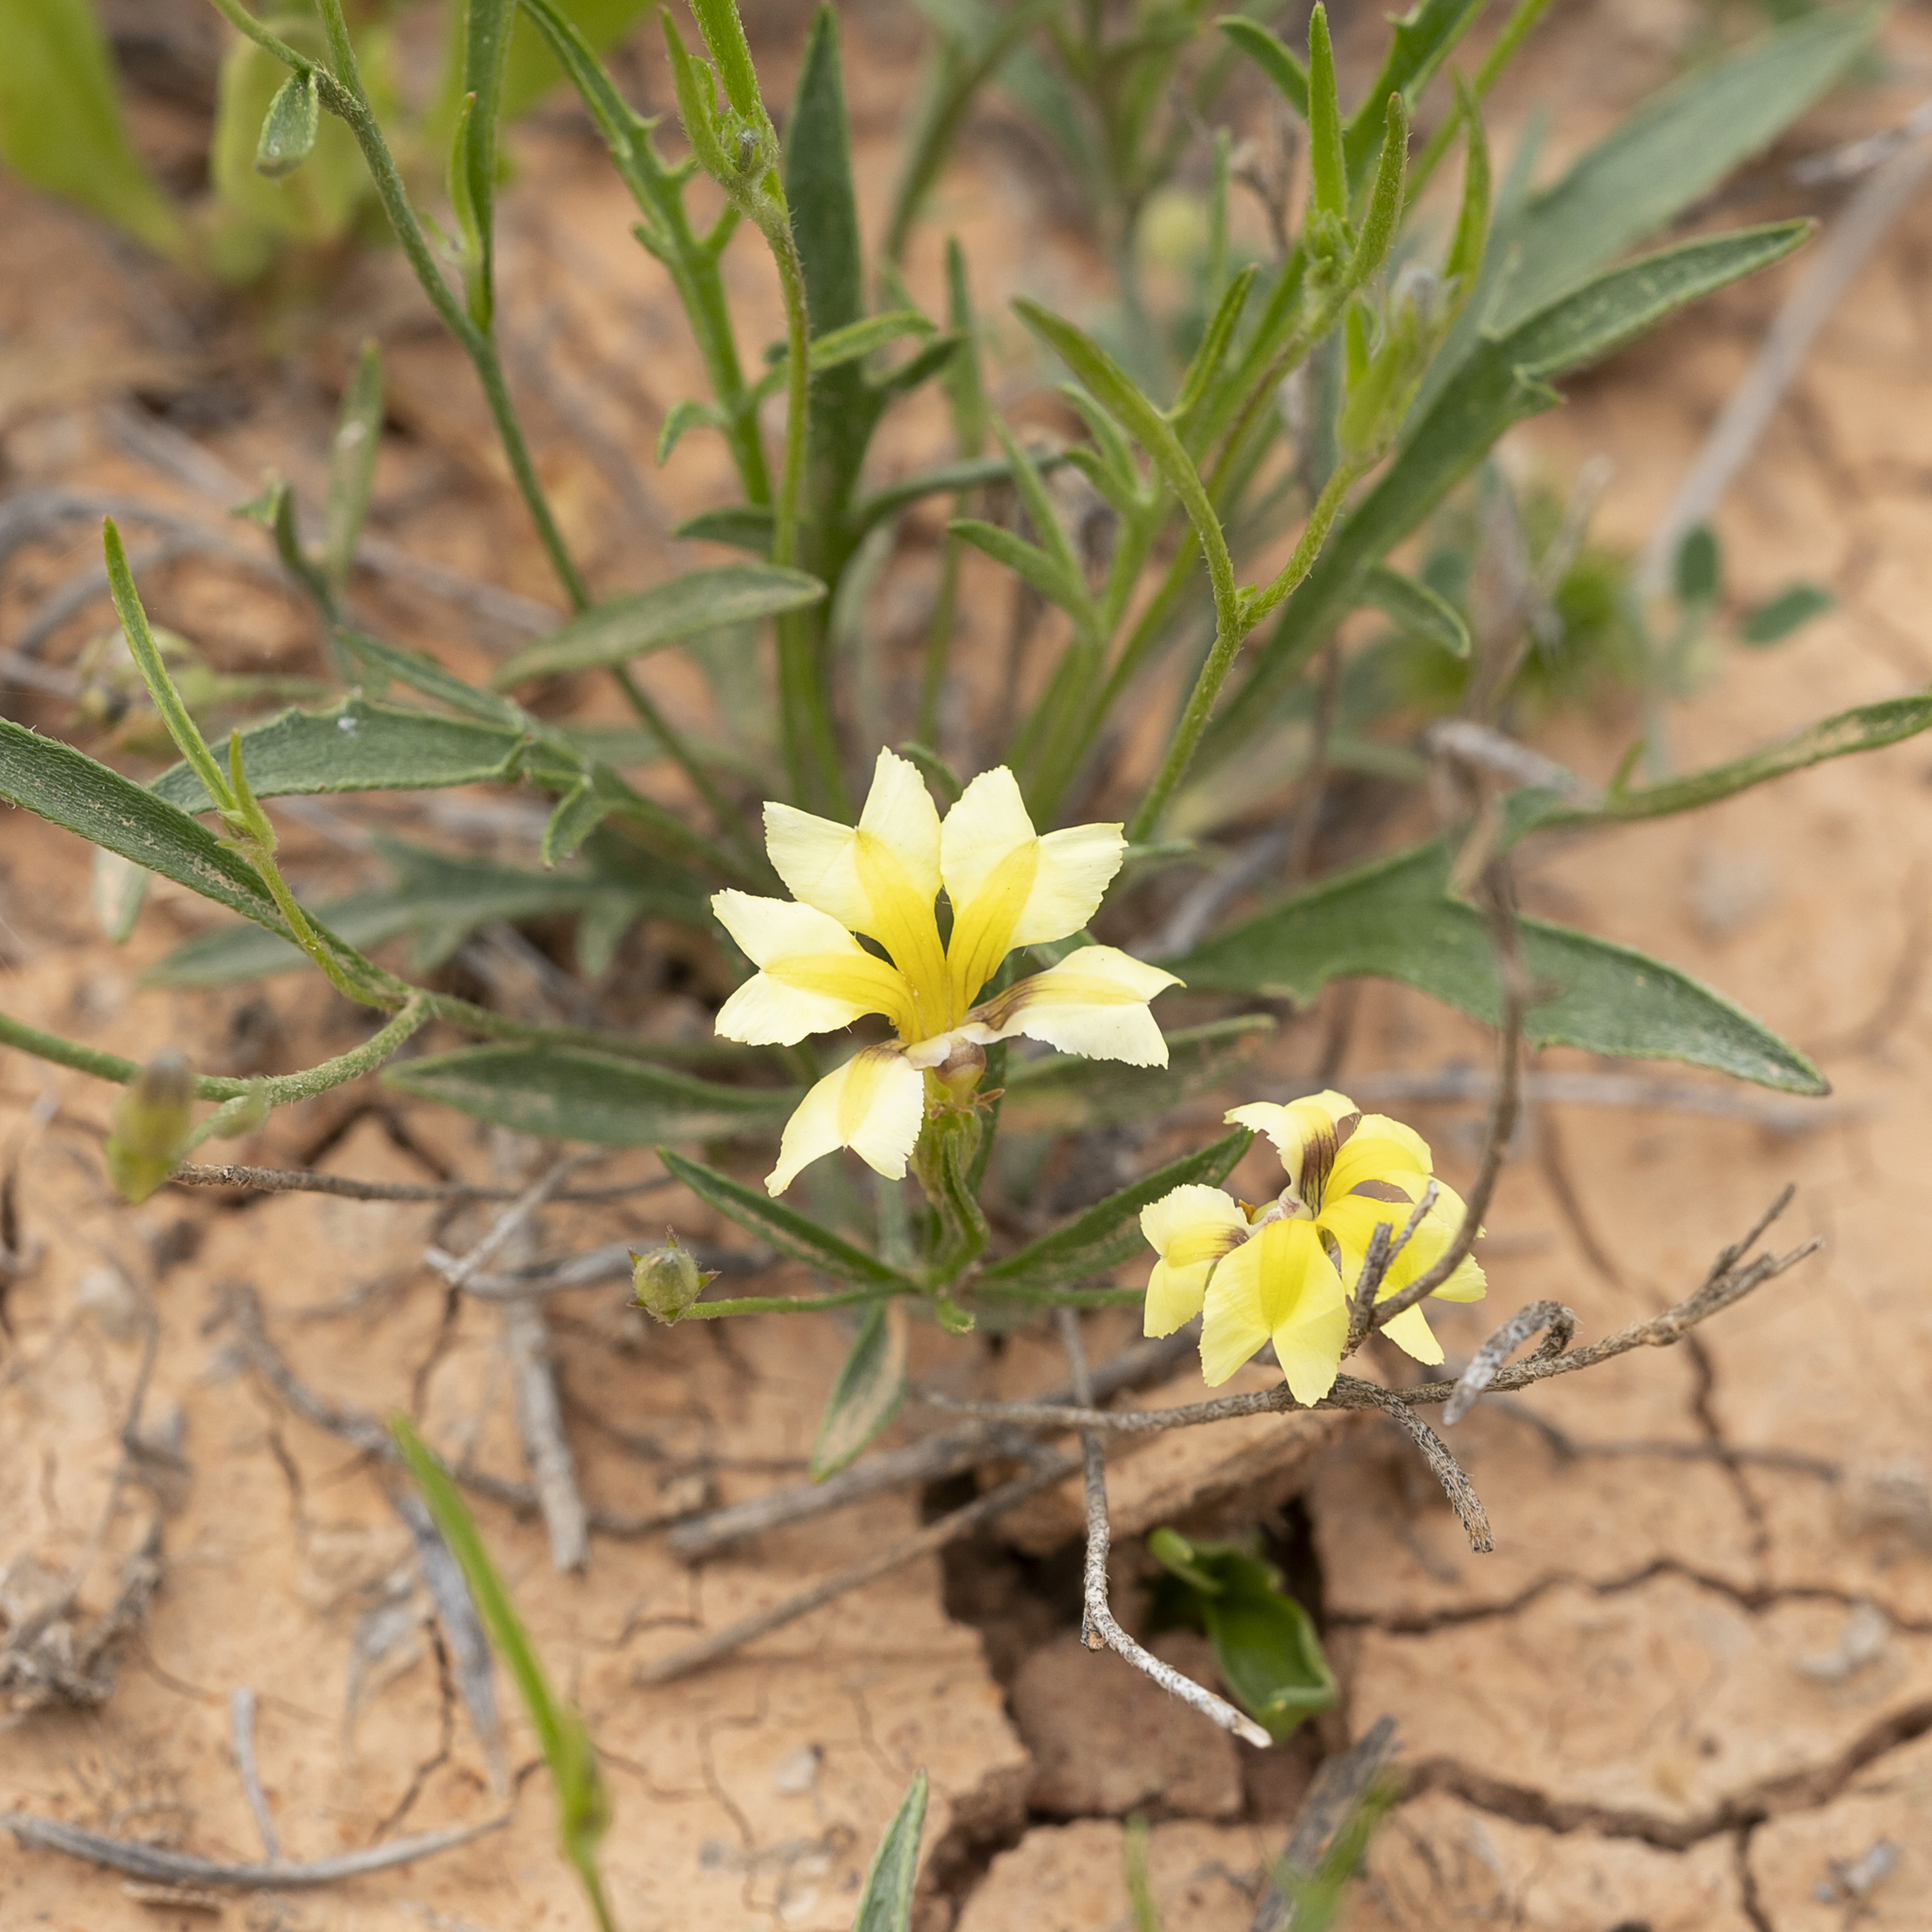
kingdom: Plantae
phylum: Tracheophyta
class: Magnoliopsida
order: Asterales
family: Goodeniaceae
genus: Goodenia
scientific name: Goodenia lunata
